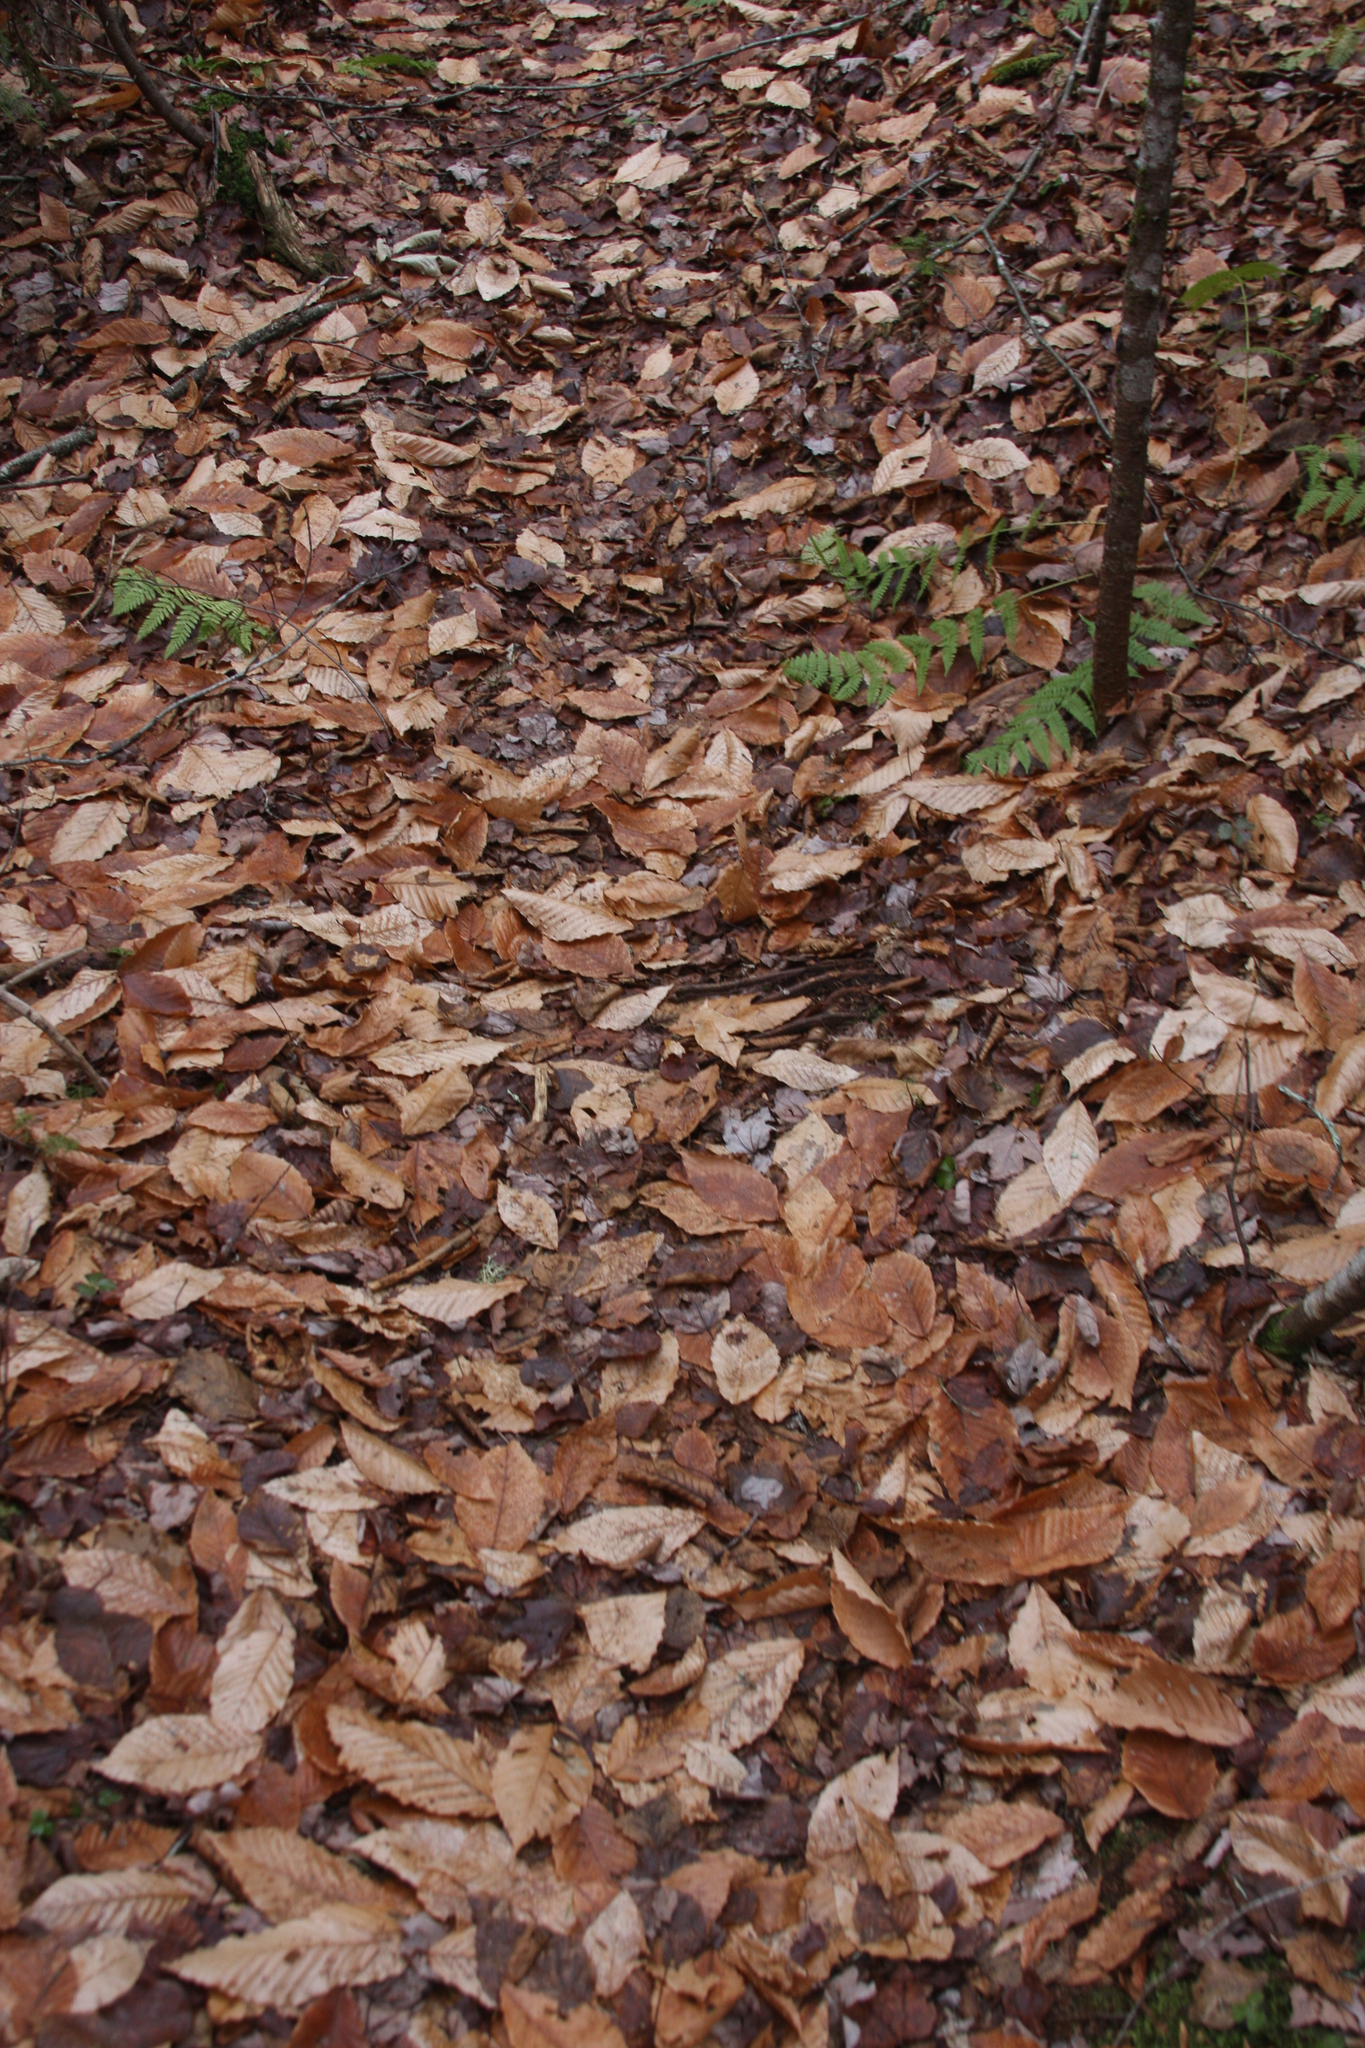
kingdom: Plantae
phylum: Tracheophyta
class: Magnoliopsida
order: Fagales
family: Fagaceae
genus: Fagus
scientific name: Fagus grandifolia
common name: American beech
